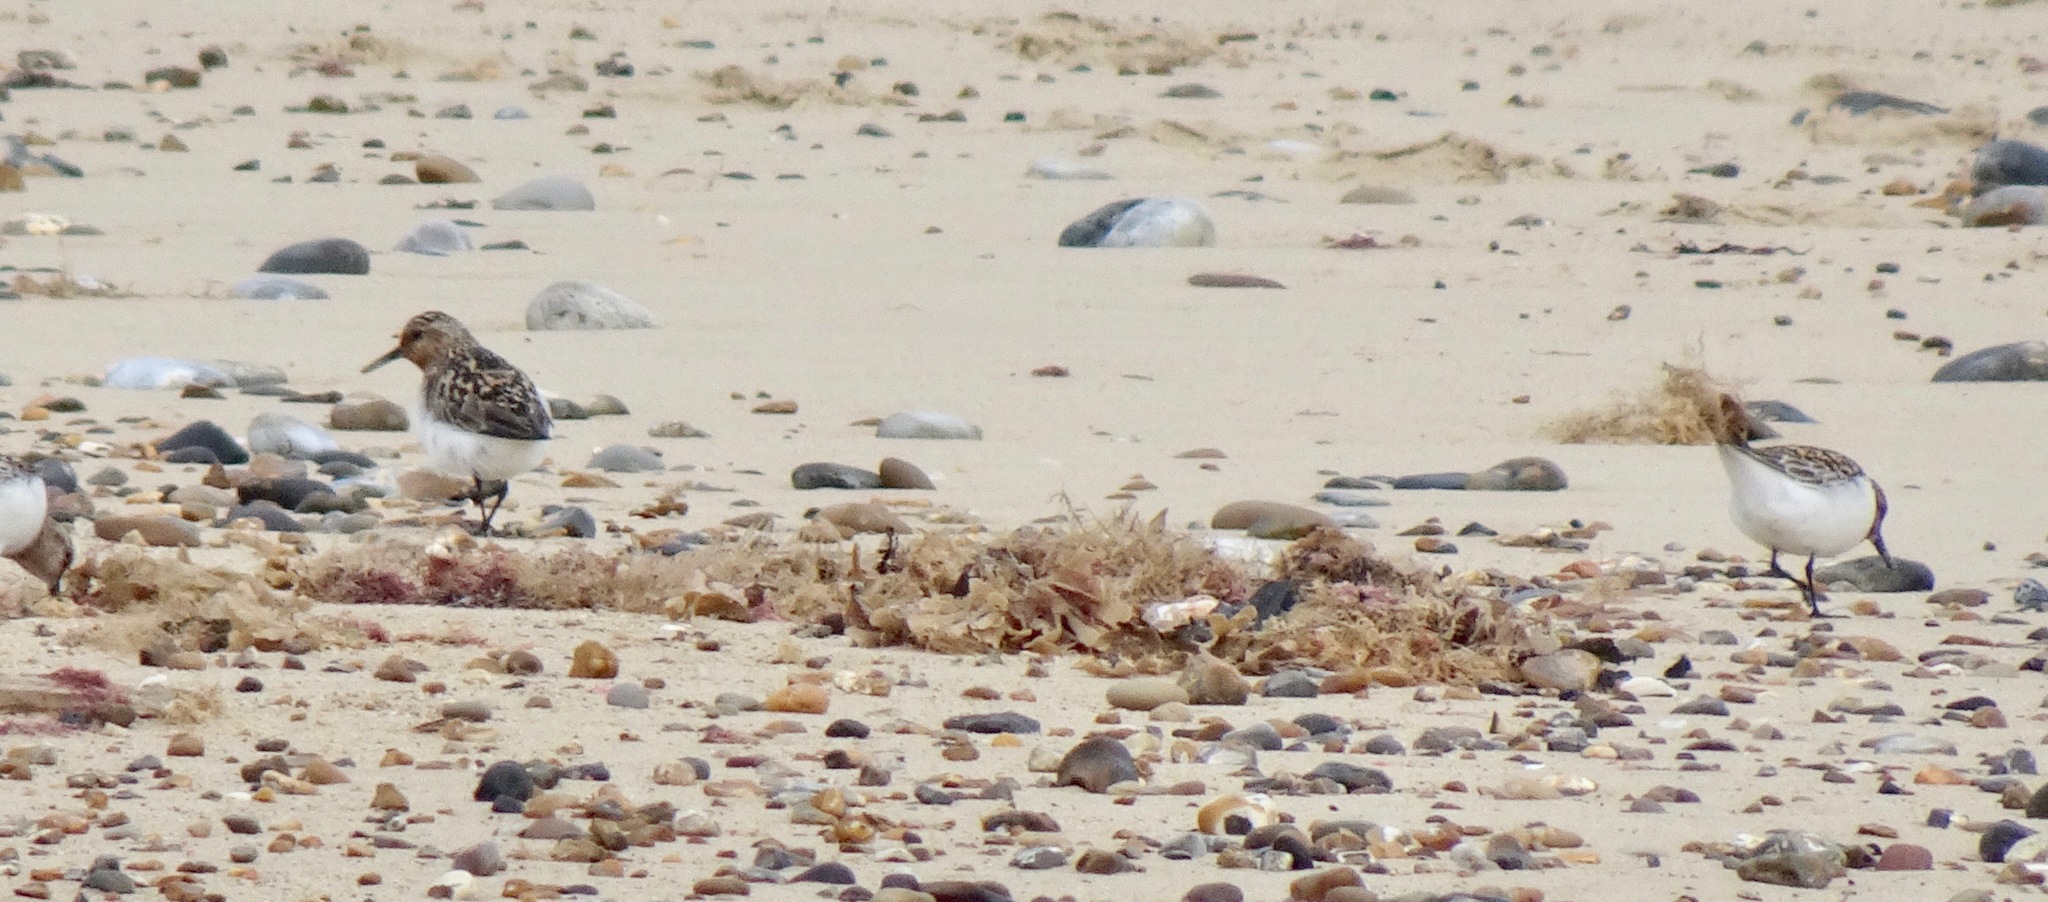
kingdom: Animalia
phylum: Chordata
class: Aves
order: Charadriiformes
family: Scolopacidae
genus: Calidris
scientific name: Calidris alba
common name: Sanderling
